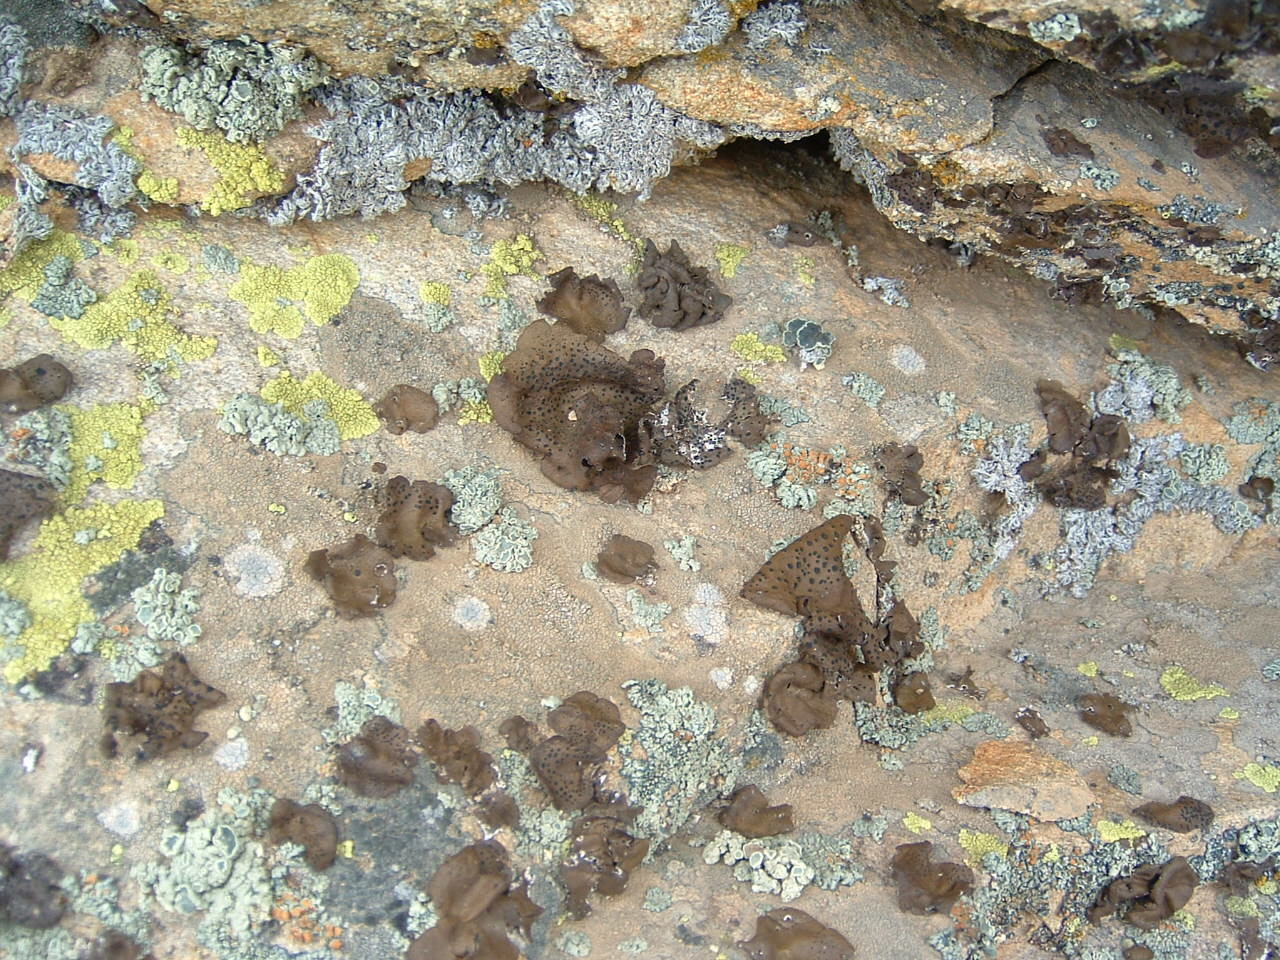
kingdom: Fungi
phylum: Ascomycota
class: Lecanoromycetes
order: Umbilicariales
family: Umbilicariaceae
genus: Umbilicaria
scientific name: Umbilicaria phaea
